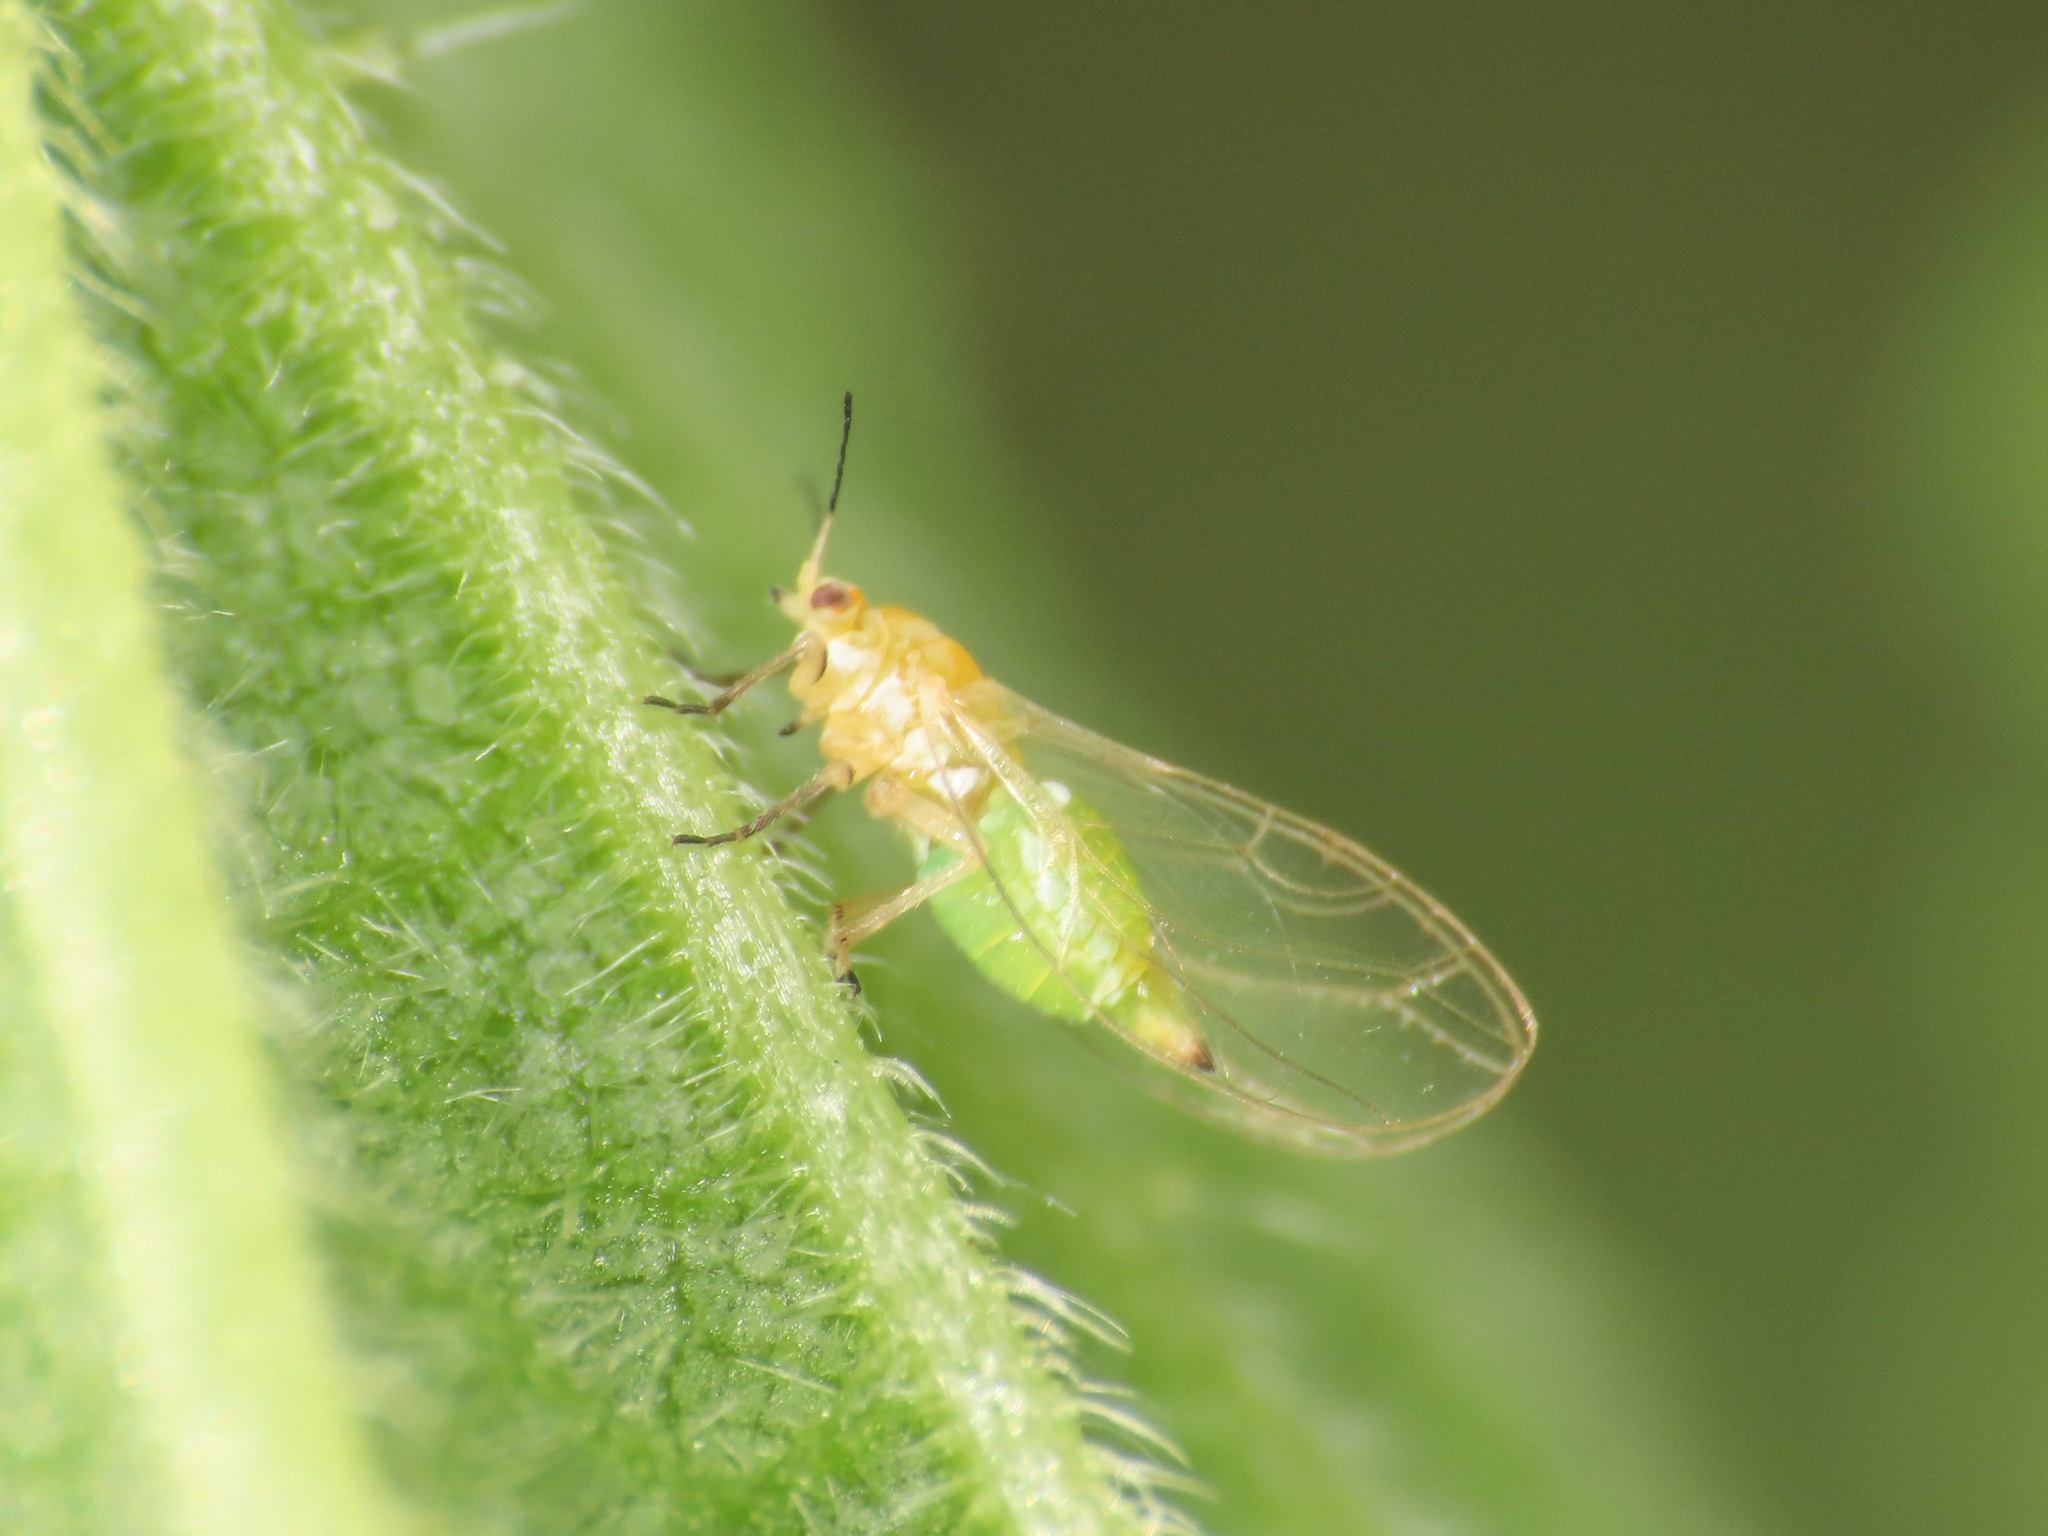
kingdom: Animalia
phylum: Arthropoda
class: Insecta
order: Hemiptera
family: Triozidae
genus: Trioza
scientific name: Trioza urticae
